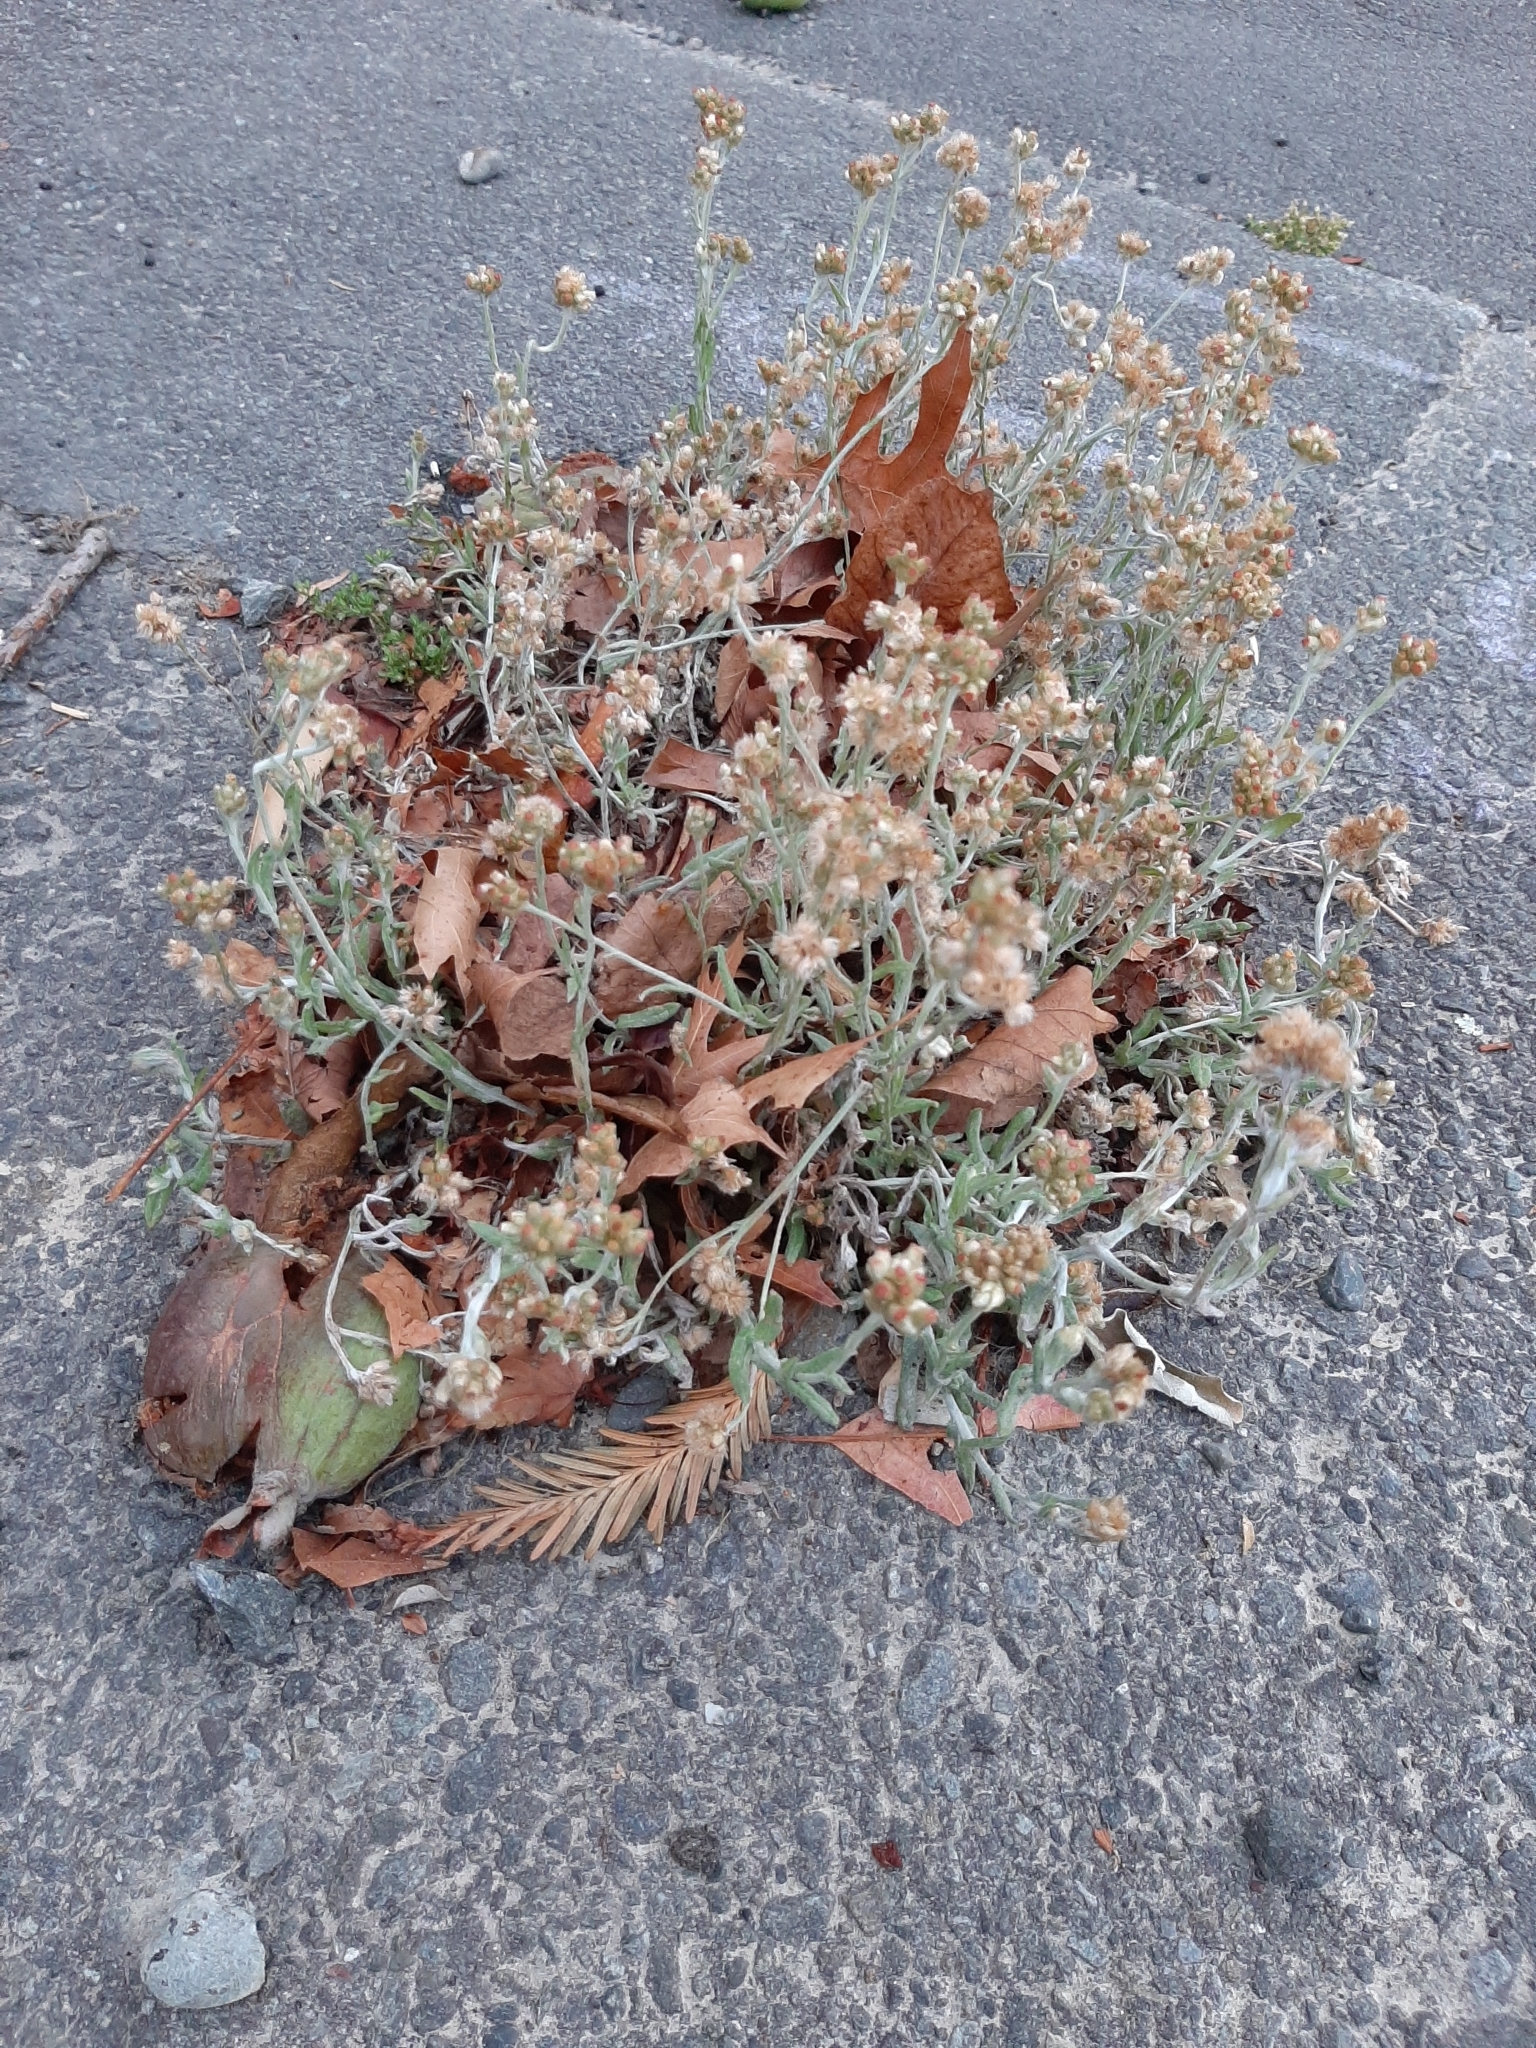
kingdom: Plantae
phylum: Tracheophyta
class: Magnoliopsida
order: Asterales
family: Asteraceae
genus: Helichrysum
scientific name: Helichrysum luteoalbum
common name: Daisy
